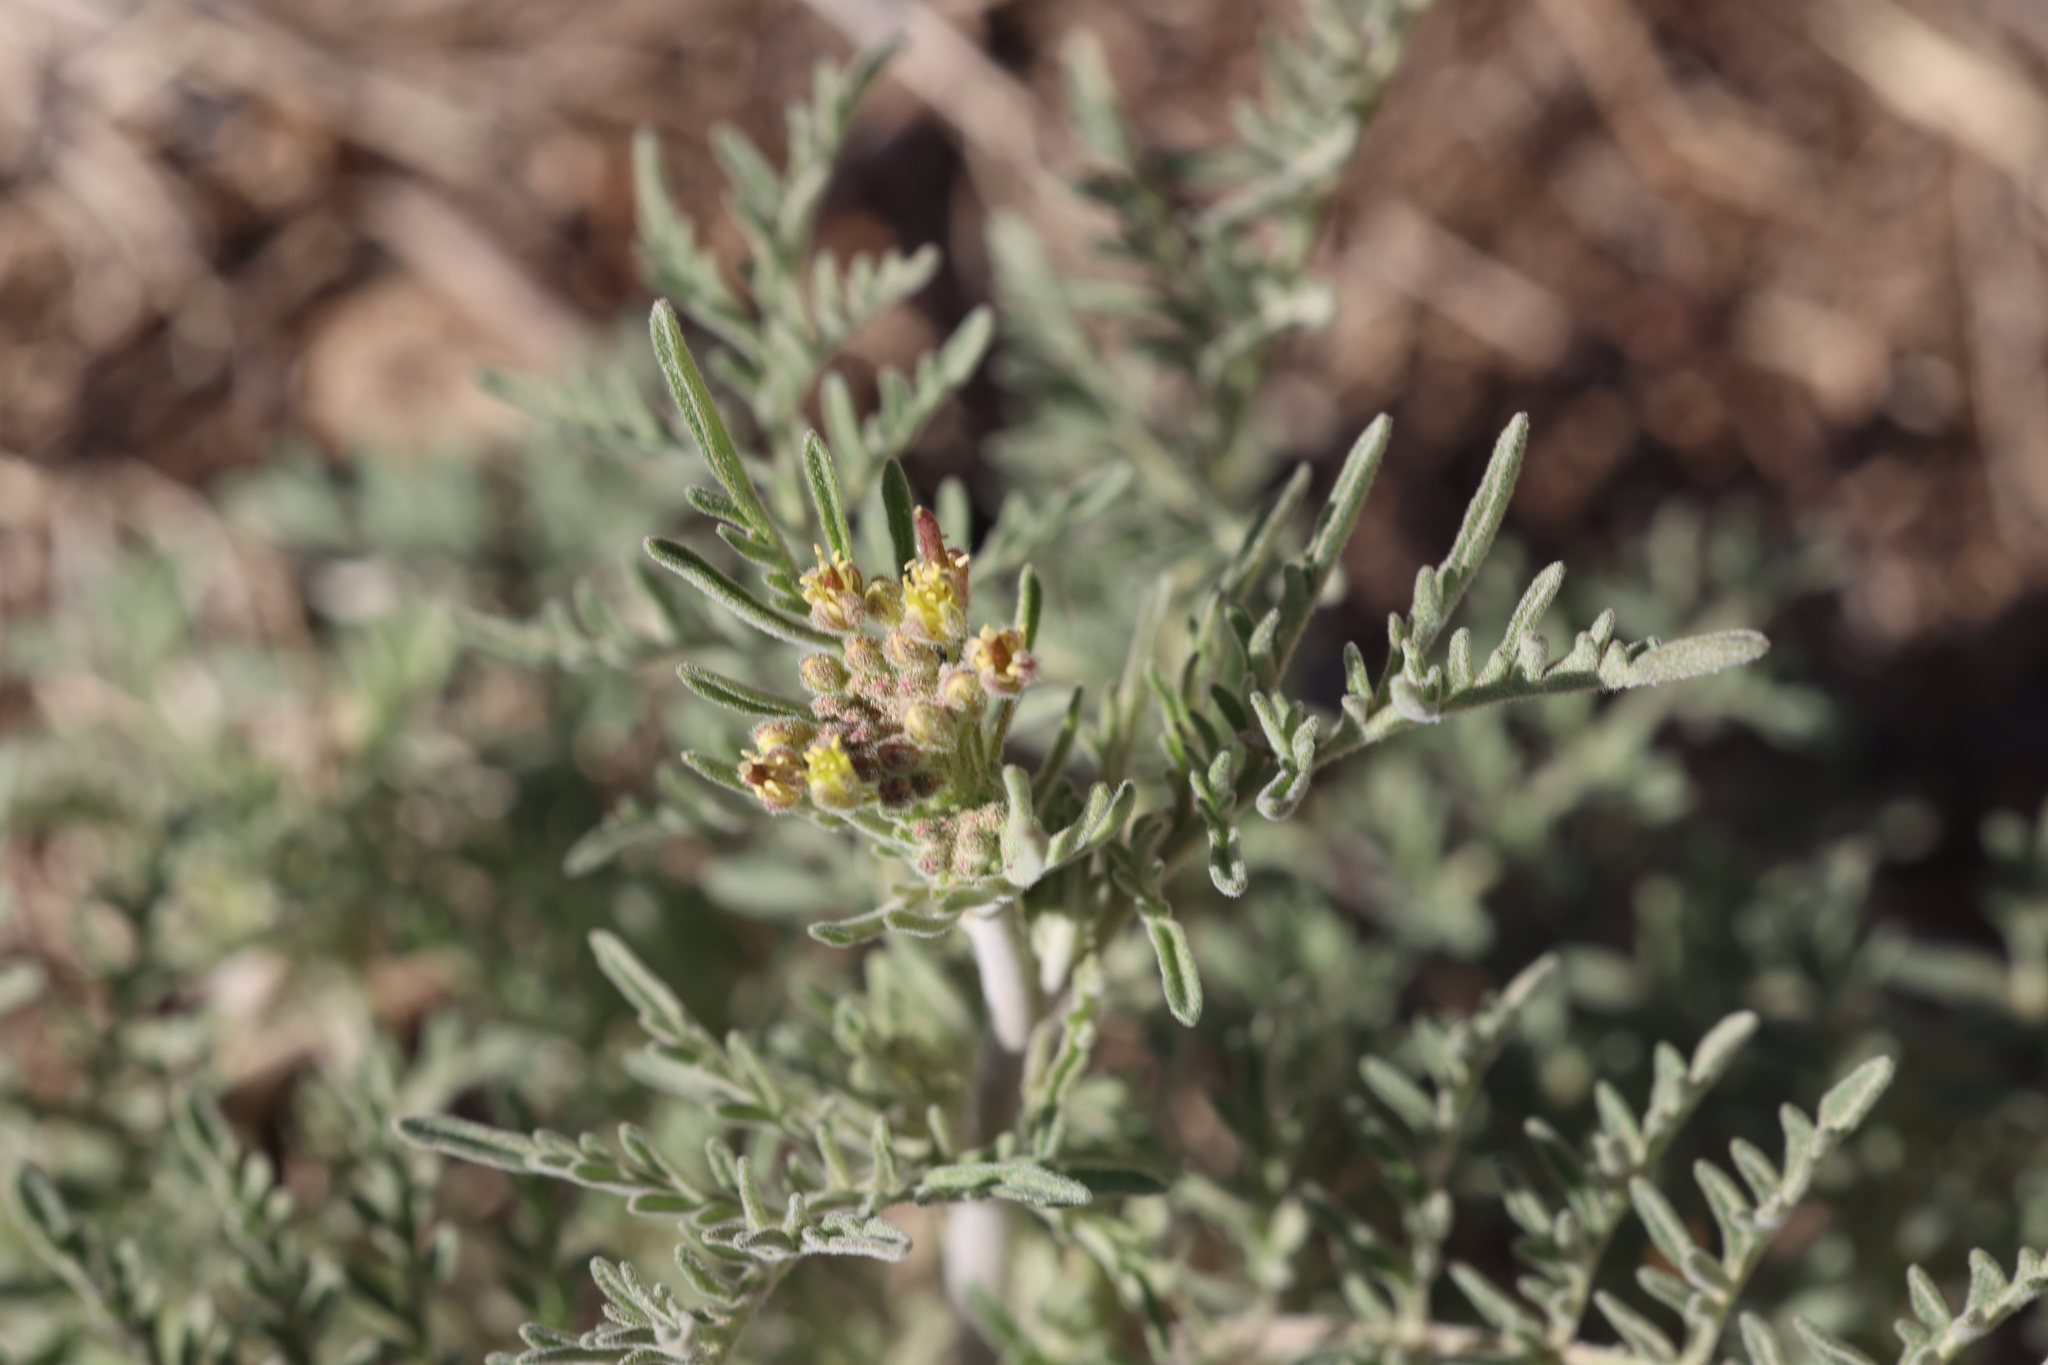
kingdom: Plantae
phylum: Tracheophyta
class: Magnoliopsida
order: Brassicales
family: Brassicaceae
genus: Descurainia
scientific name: Descurainia pinnata
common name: Western tansy mustard
